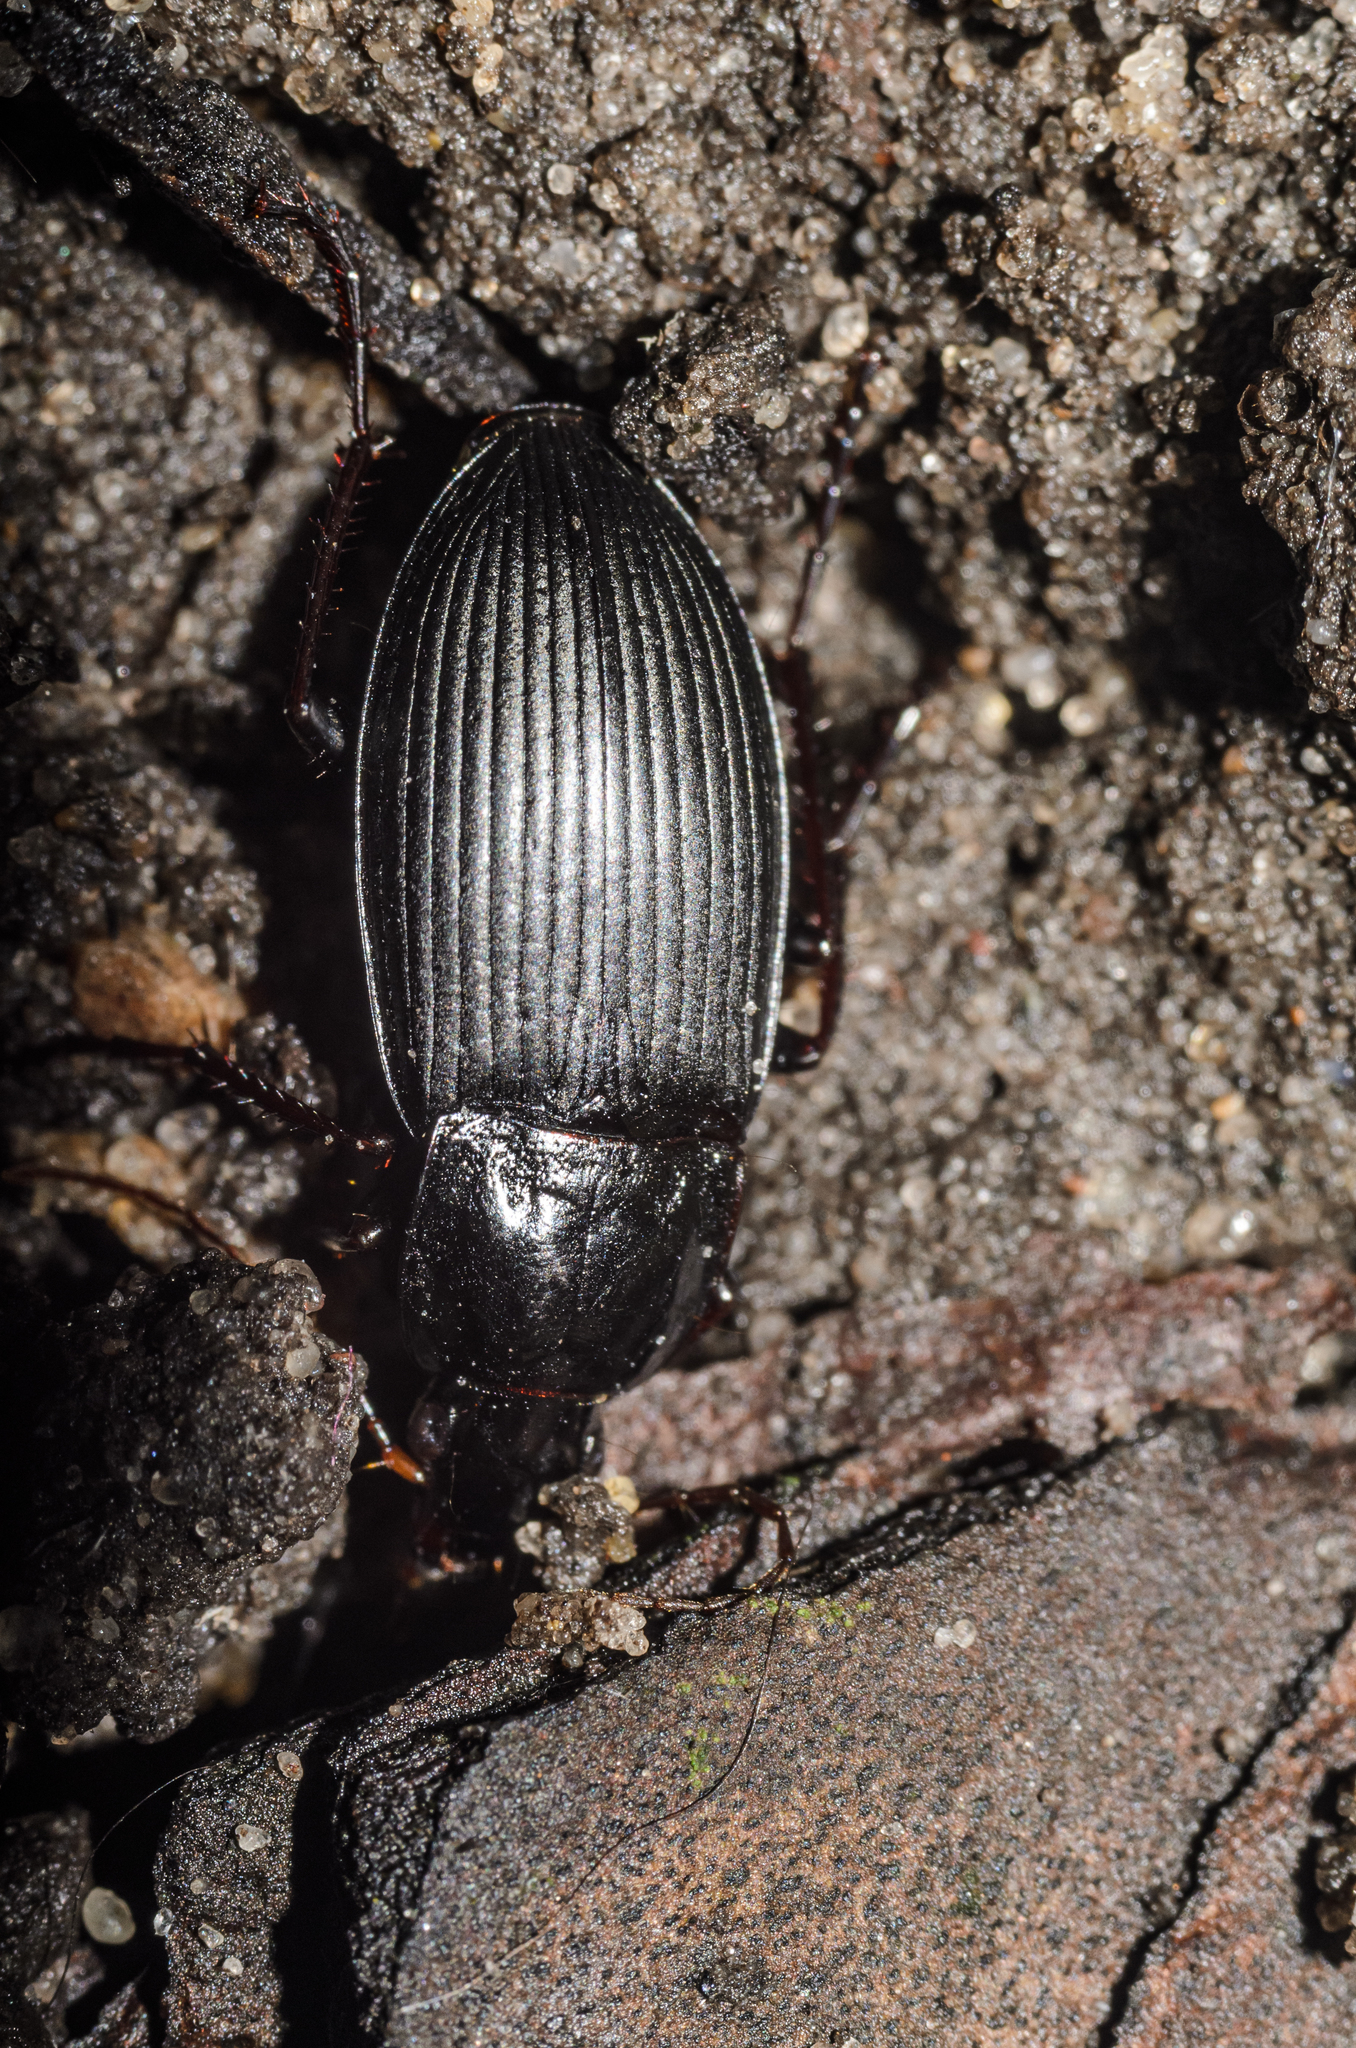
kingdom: Animalia
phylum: Arthropoda
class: Insecta
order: Coleoptera
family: Carabidae
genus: Calathus
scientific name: Calathus fuscipes
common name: Dark-footed harp ground beetle
